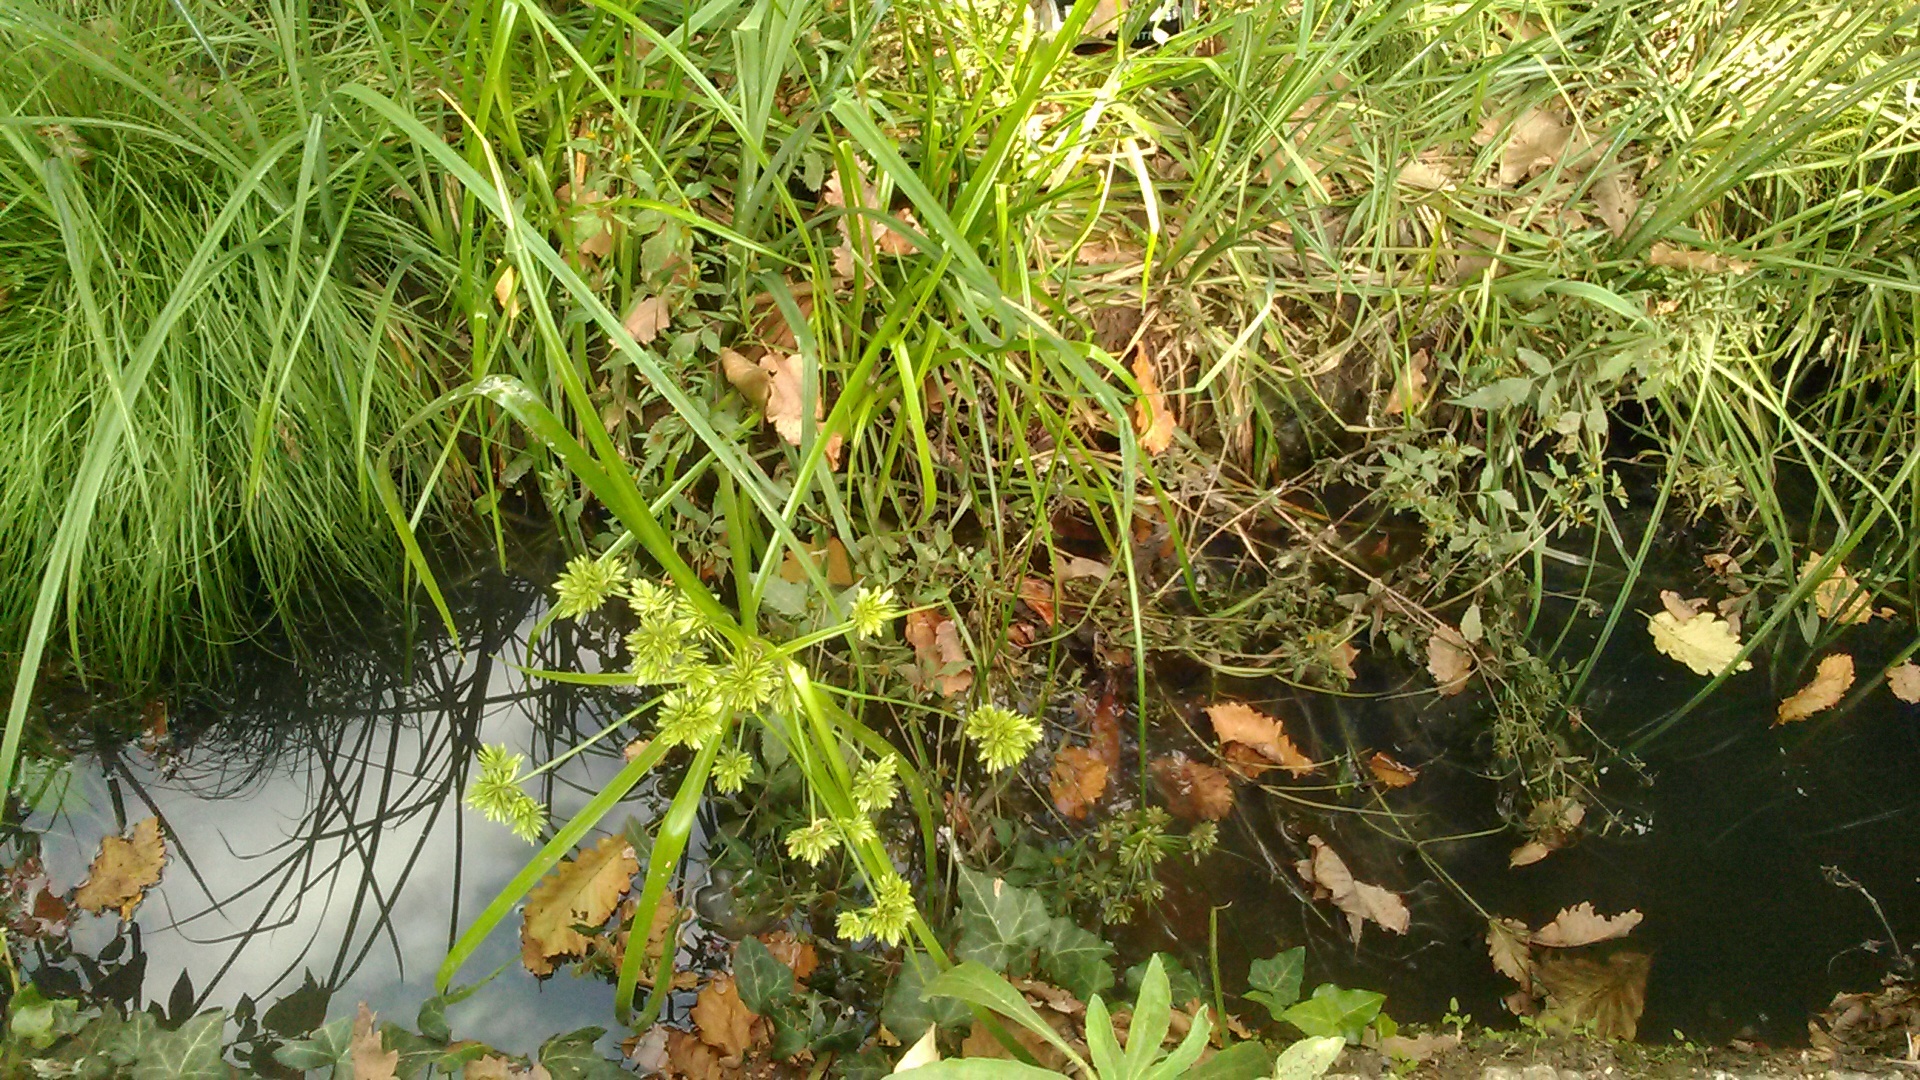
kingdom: Plantae
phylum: Tracheophyta
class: Liliopsida
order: Poales
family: Cyperaceae
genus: Cyperus
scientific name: Cyperus eragrostis
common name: Tall flatsedge
